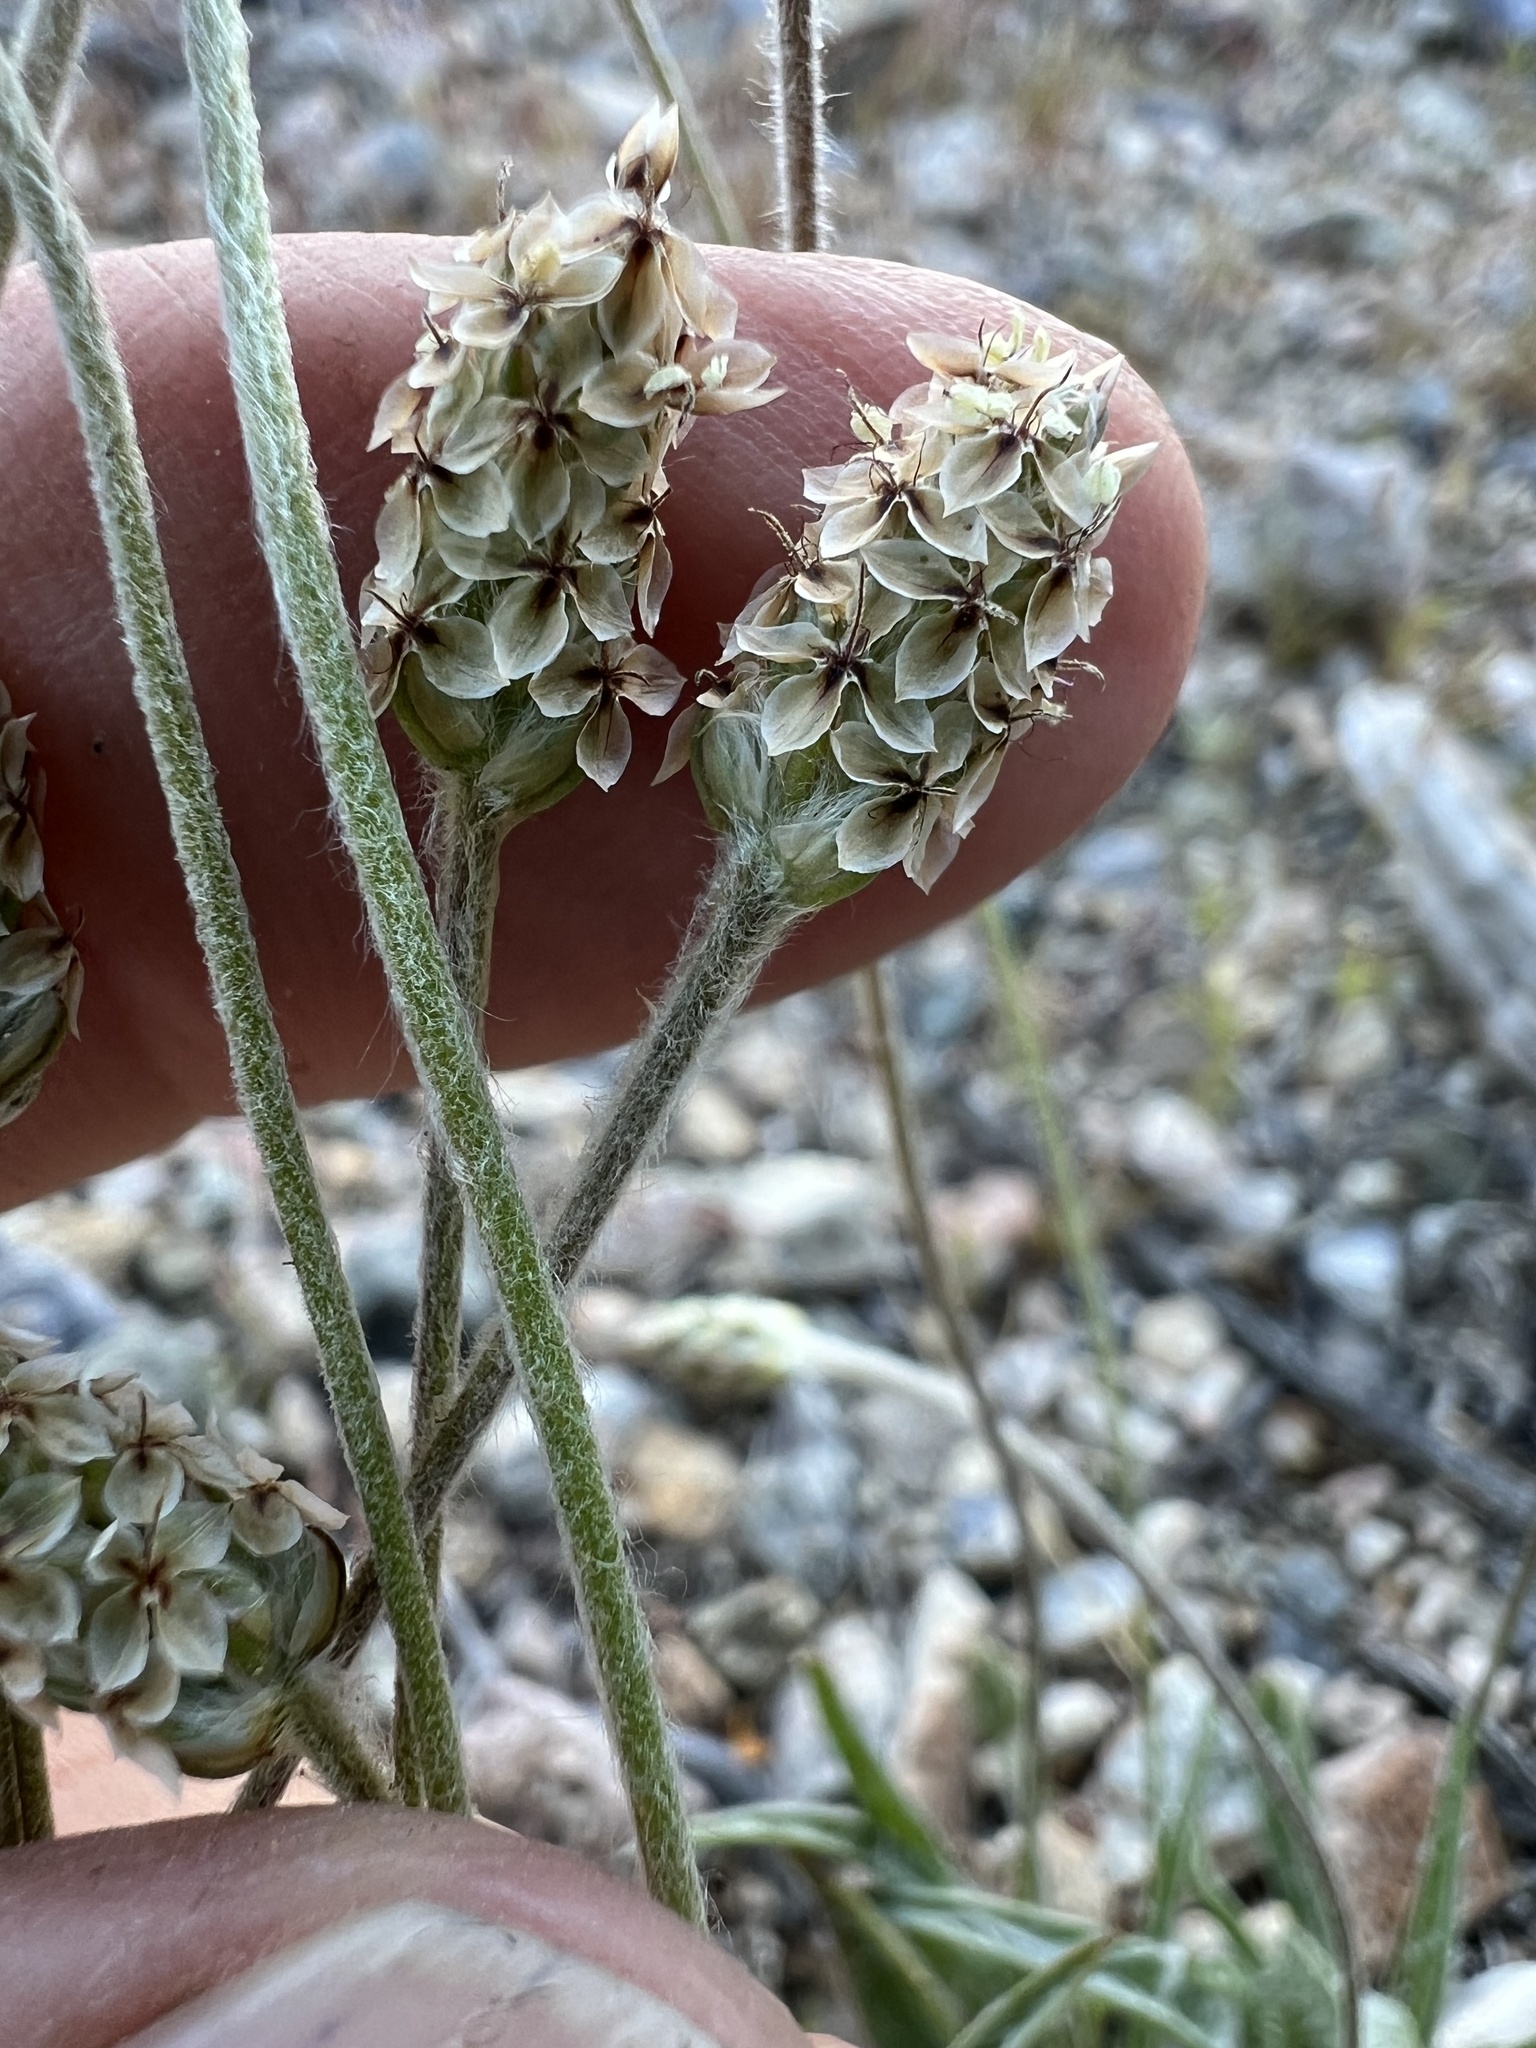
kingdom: Plantae
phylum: Tracheophyta
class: Magnoliopsida
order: Lamiales
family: Plantaginaceae
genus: Plantago
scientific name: Plantago ovata
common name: Blond plantain
